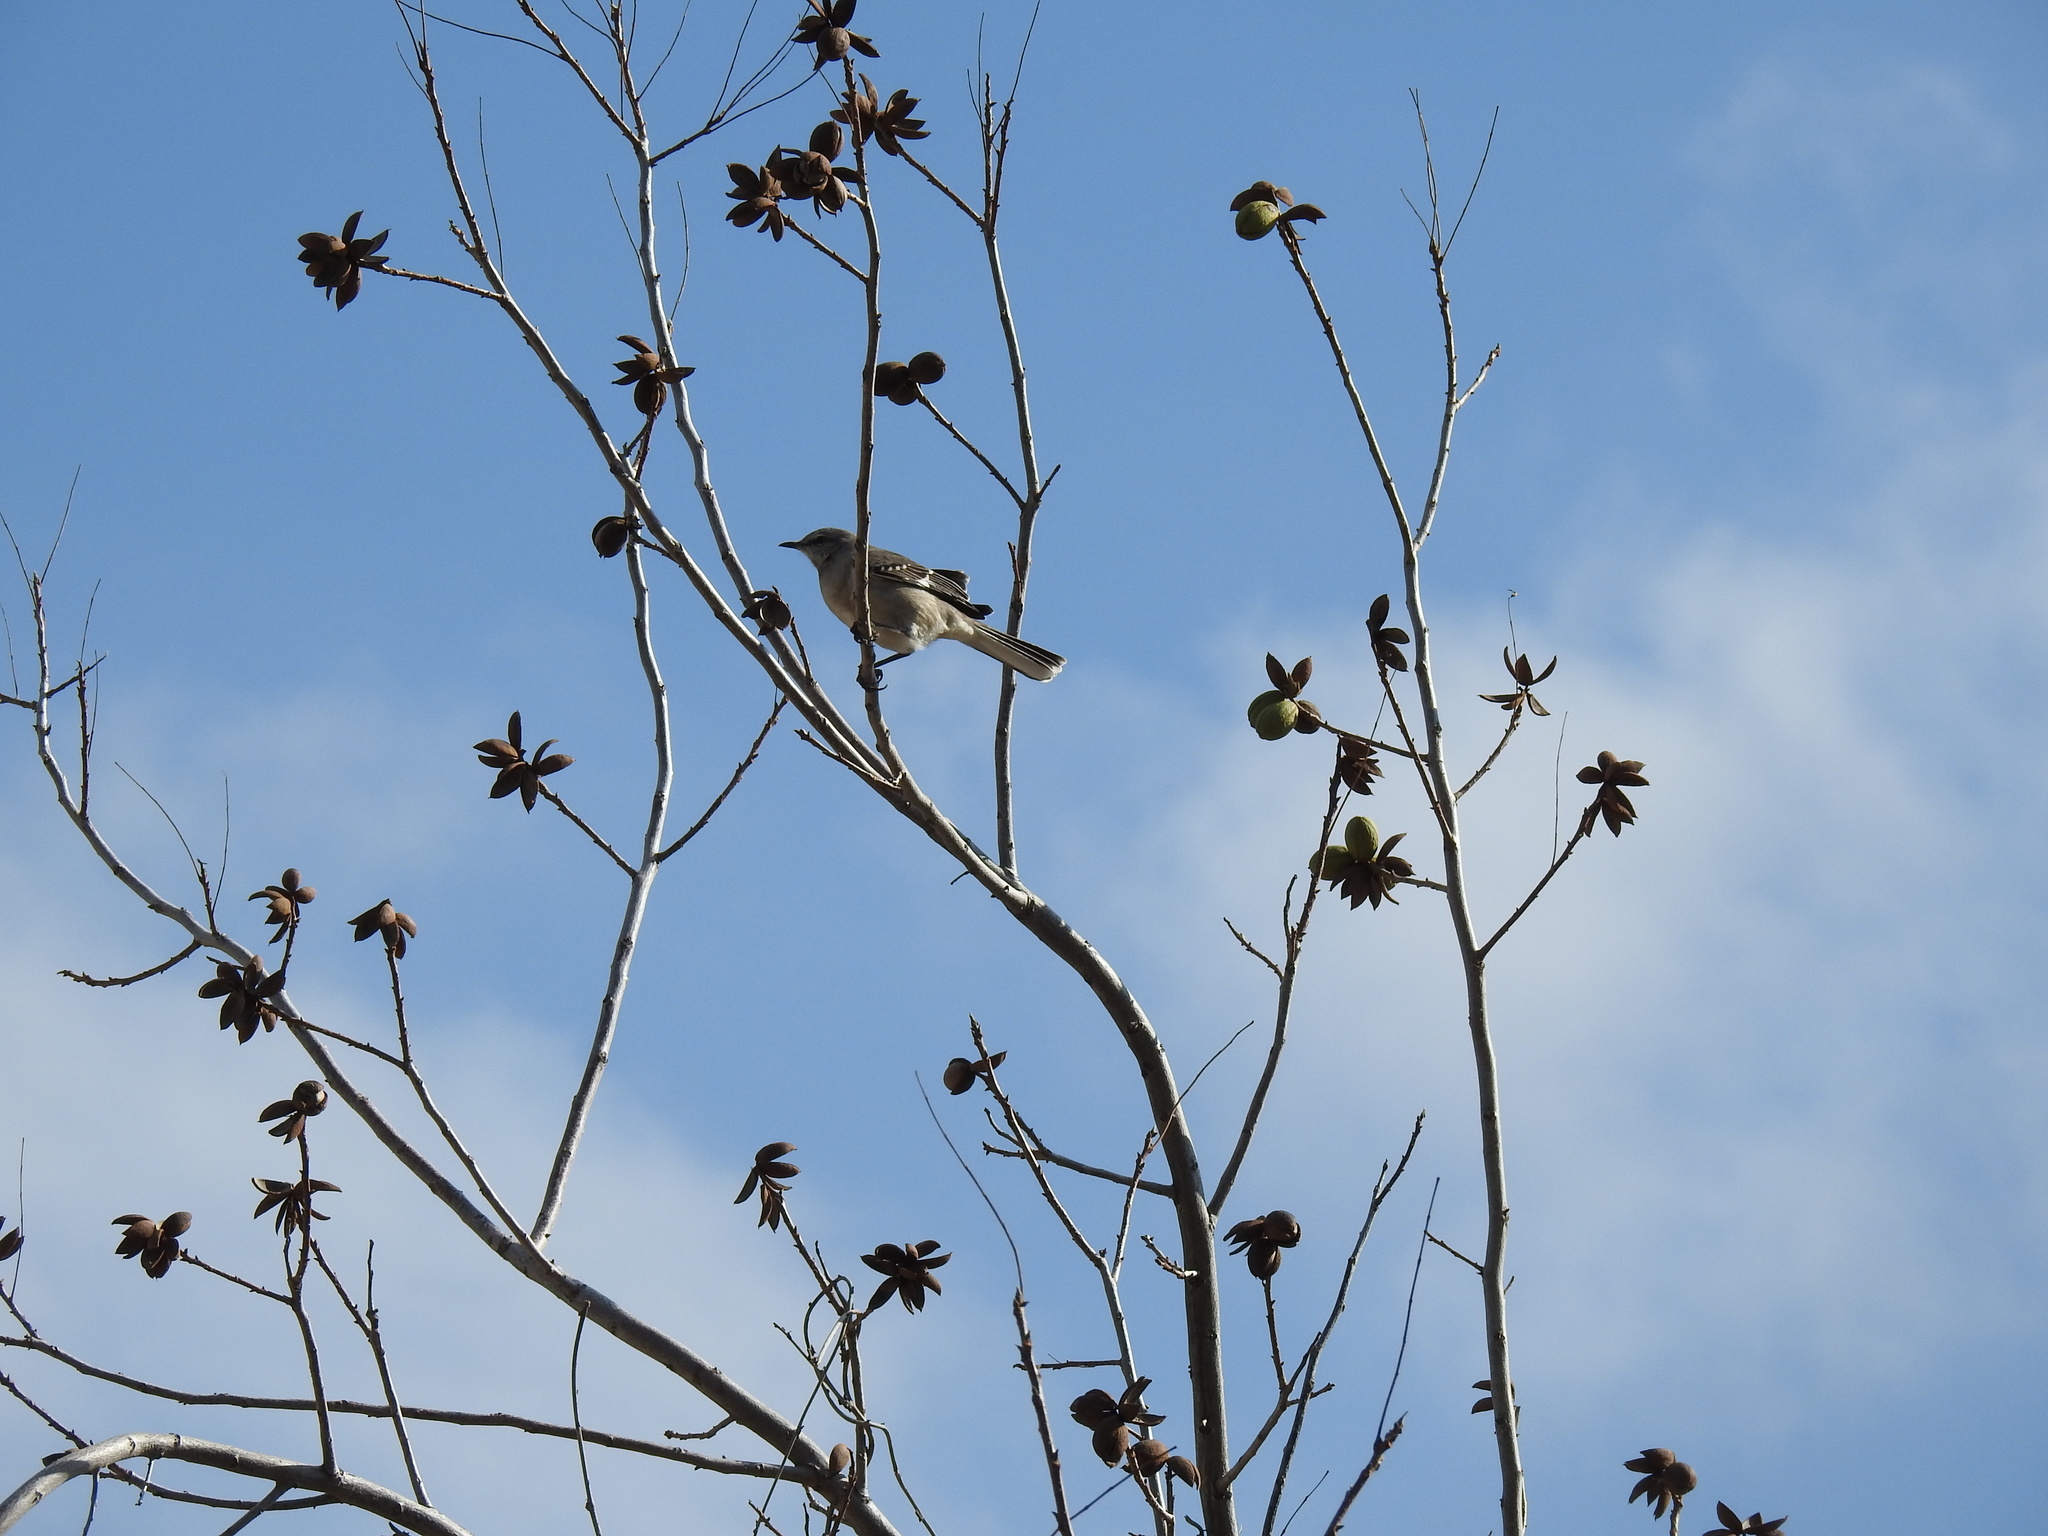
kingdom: Animalia
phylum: Chordata
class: Aves
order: Passeriformes
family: Mimidae
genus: Mimus
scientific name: Mimus polyglottos
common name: Northern mockingbird
